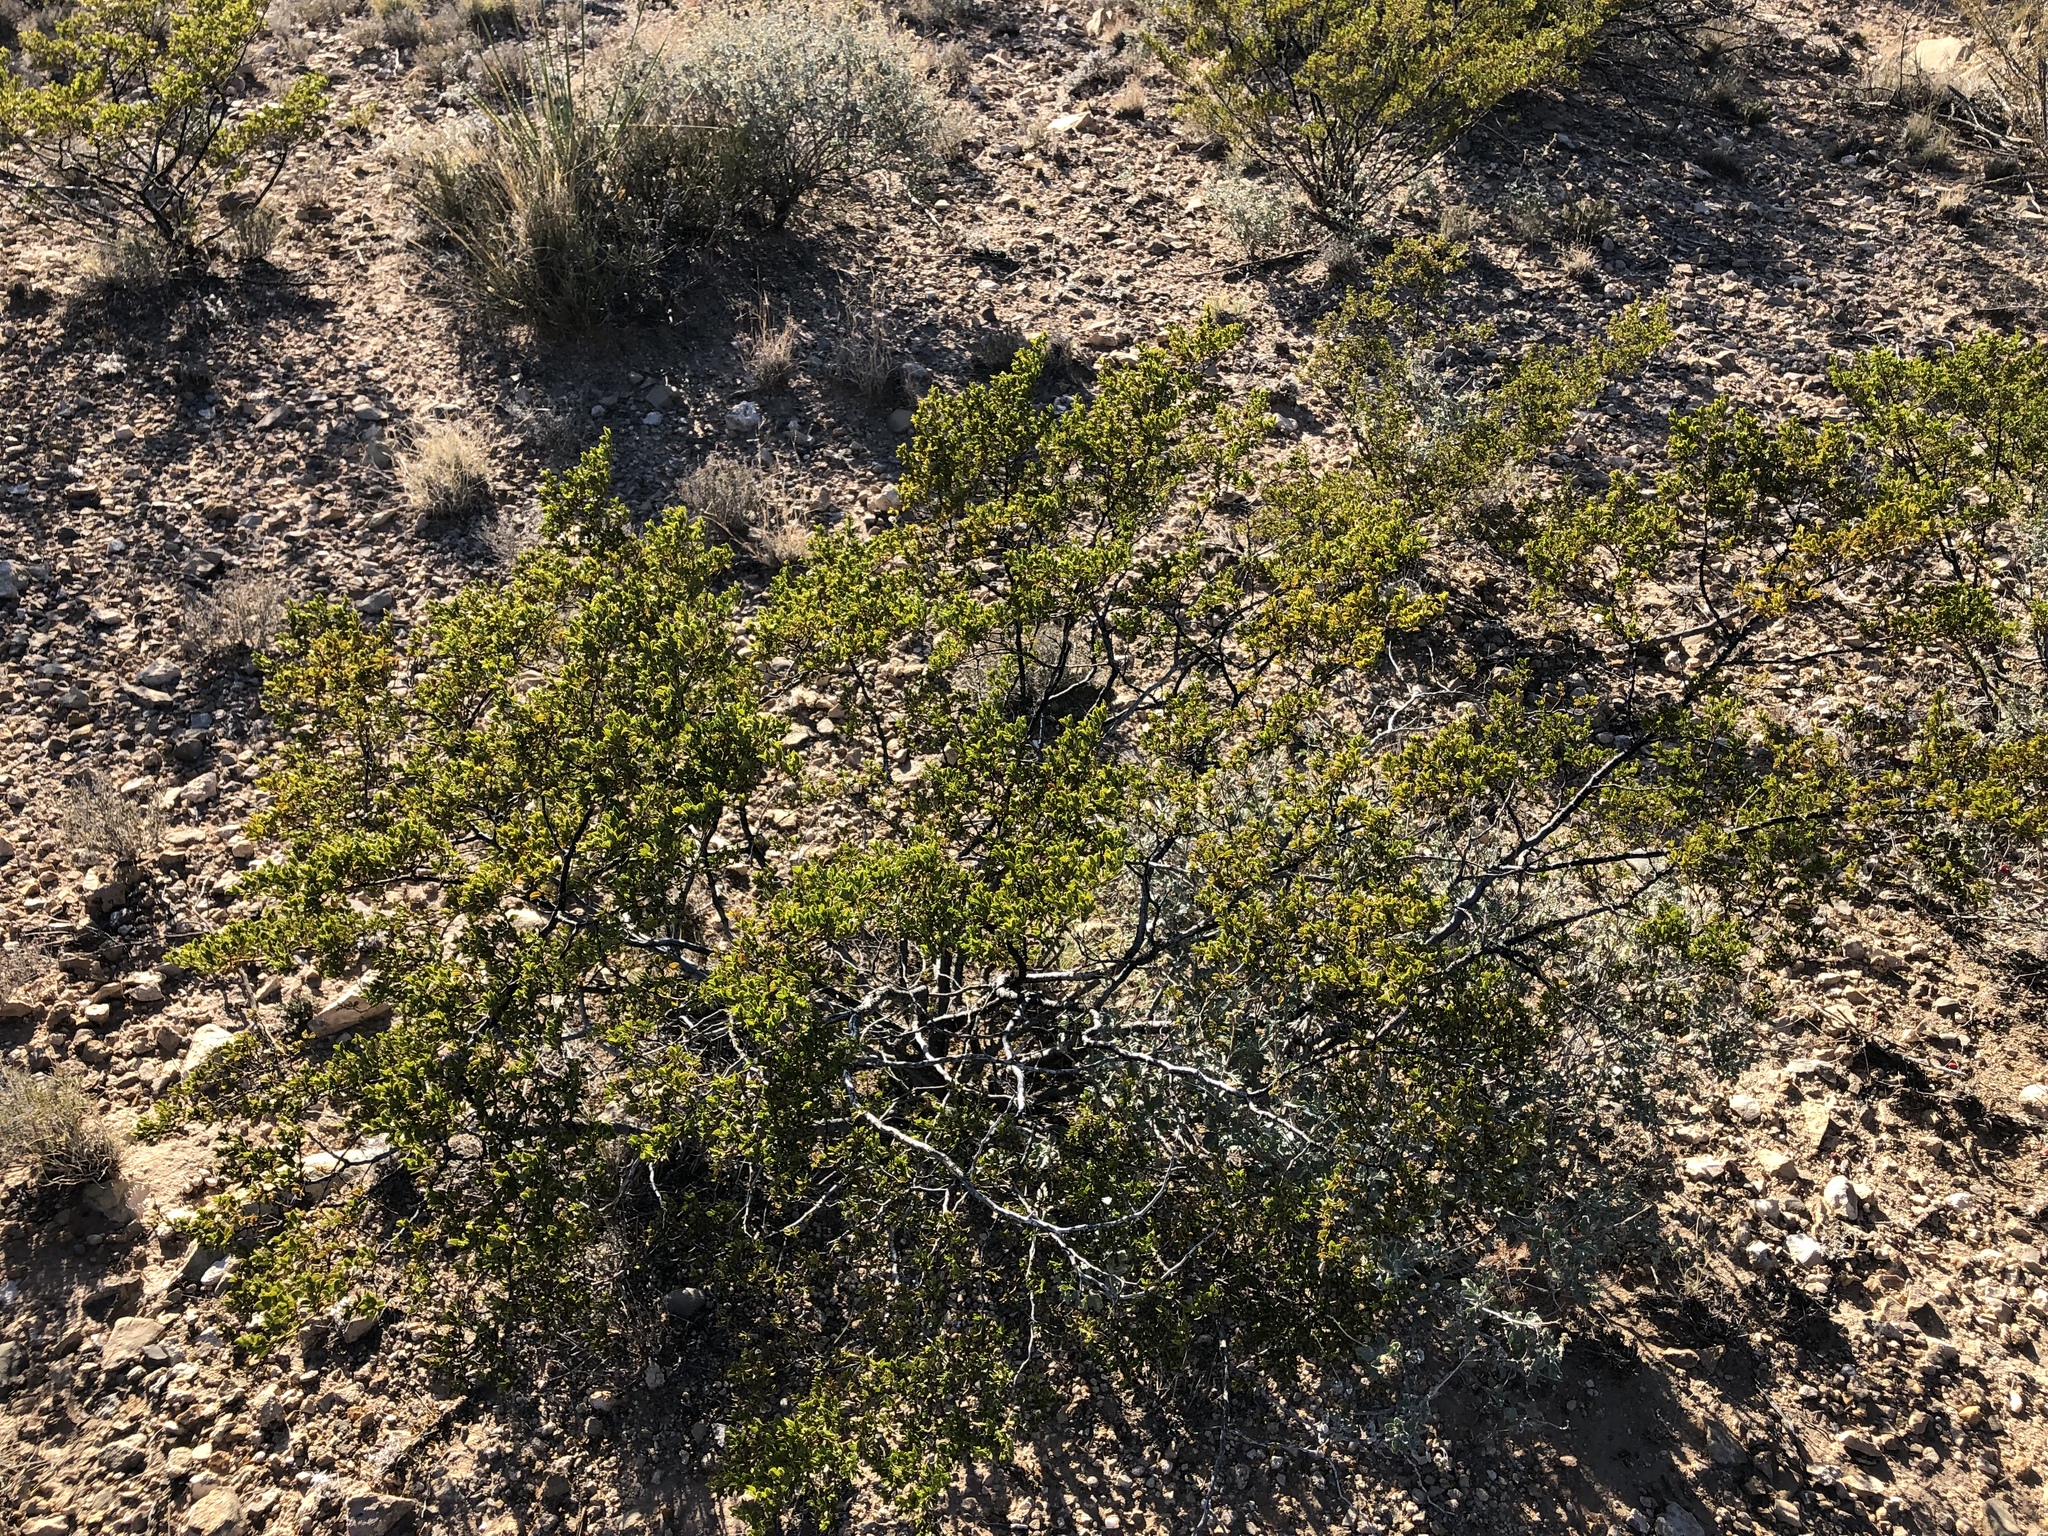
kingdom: Plantae
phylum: Tracheophyta
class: Magnoliopsida
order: Zygophyllales
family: Zygophyllaceae
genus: Larrea
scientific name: Larrea tridentata
